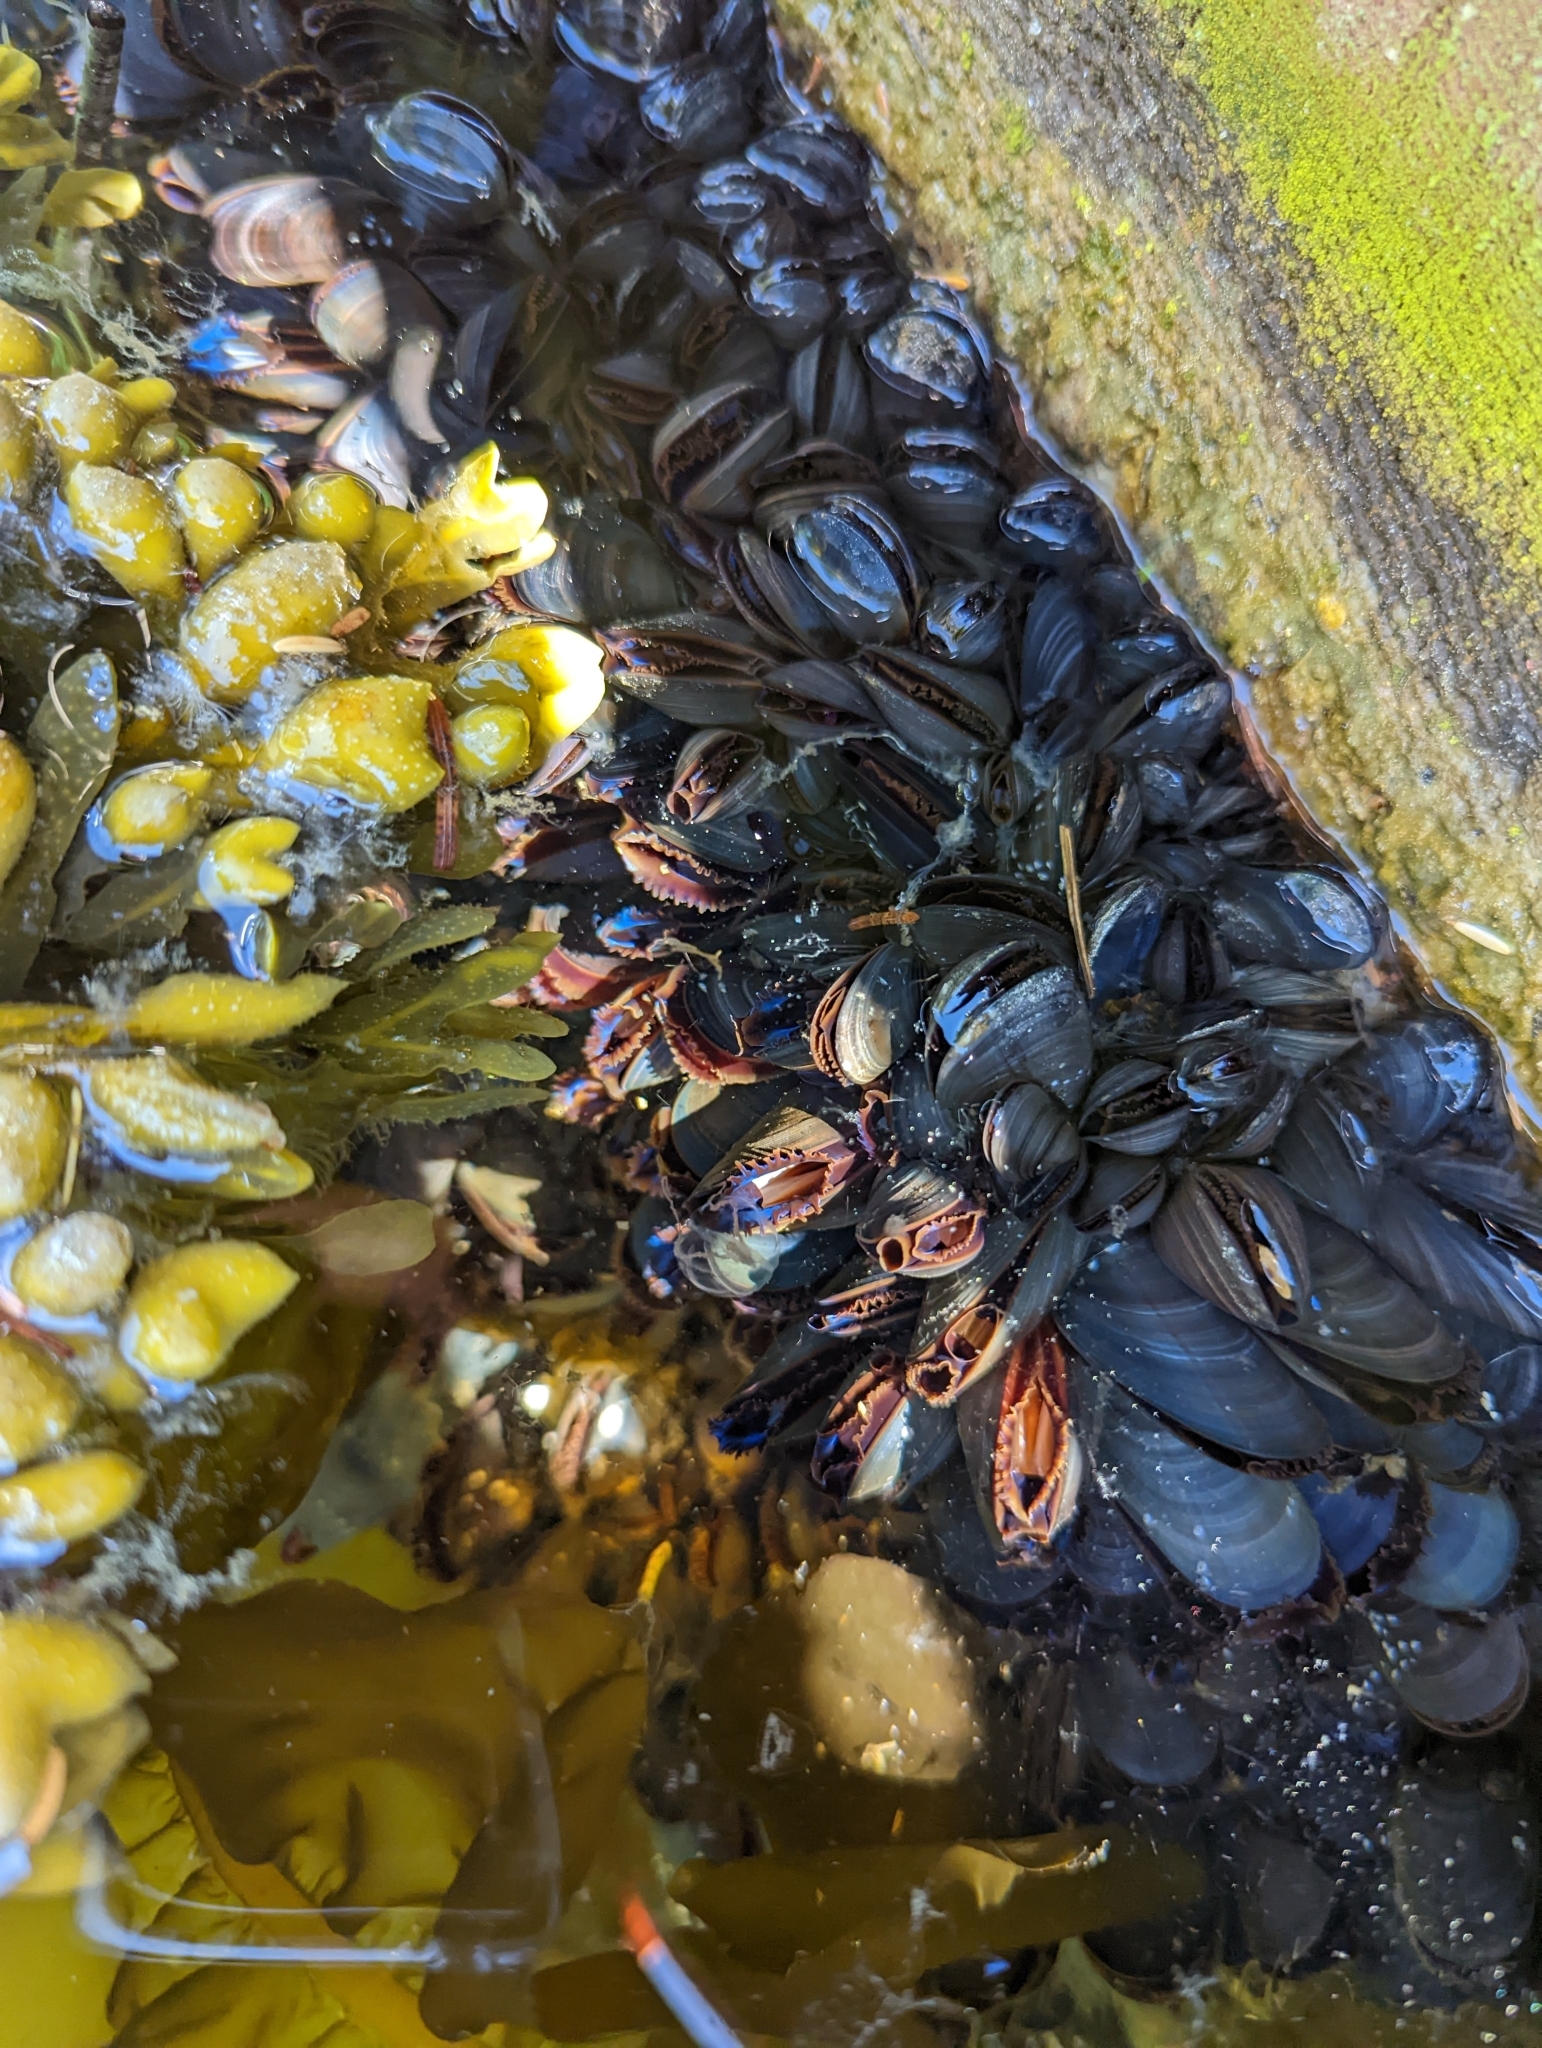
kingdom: Animalia
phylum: Mollusca
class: Bivalvia
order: Mytilida
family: Mytilidae
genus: Mytilus
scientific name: Mytilus trossulus
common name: Northern blue mussel
